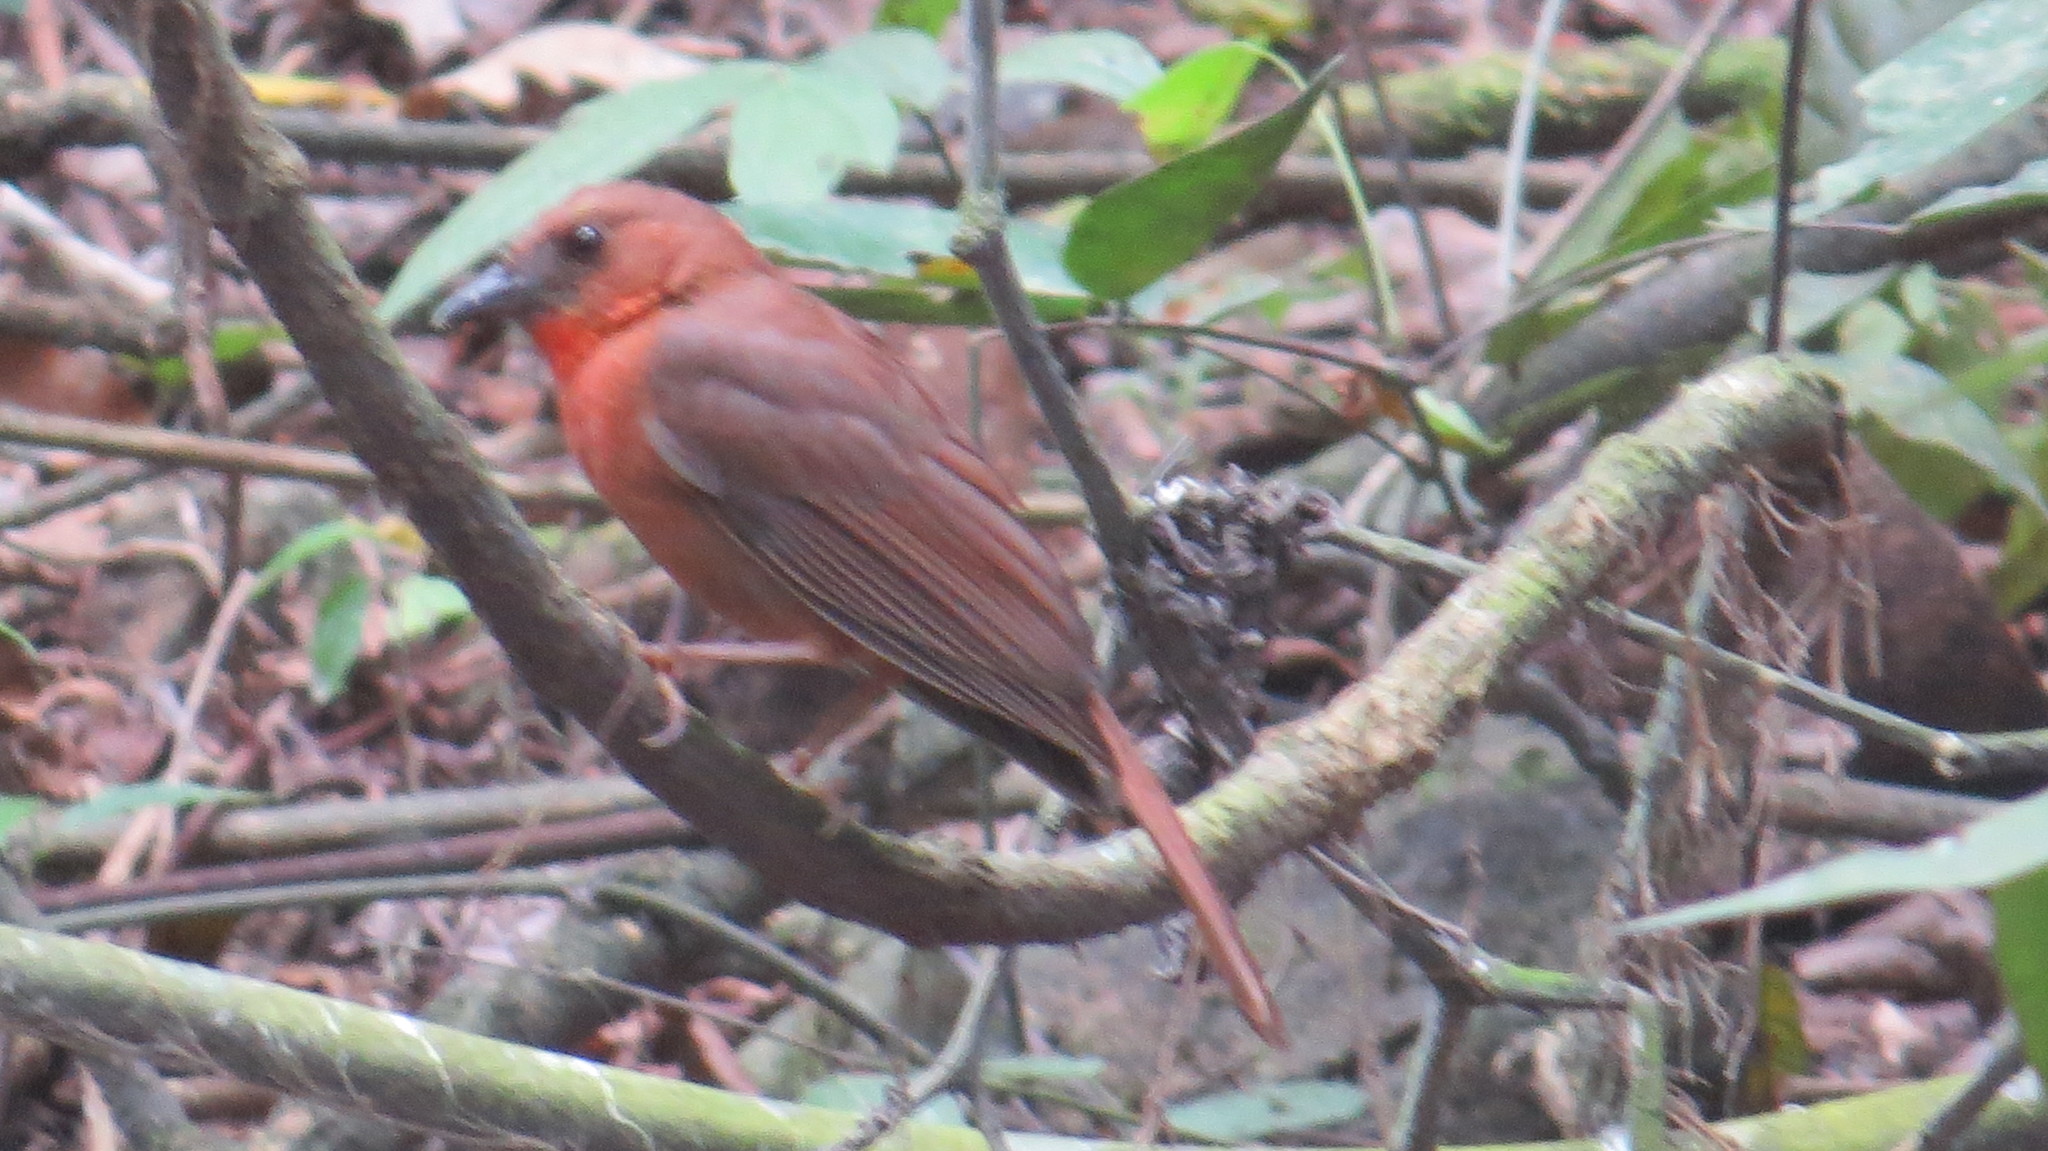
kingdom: Animalia
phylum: Chordata
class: Aves
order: Passeriformes
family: Cardinalidae
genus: Habia
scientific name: Habia fuscicauda
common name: Red-throated ant-tanager
